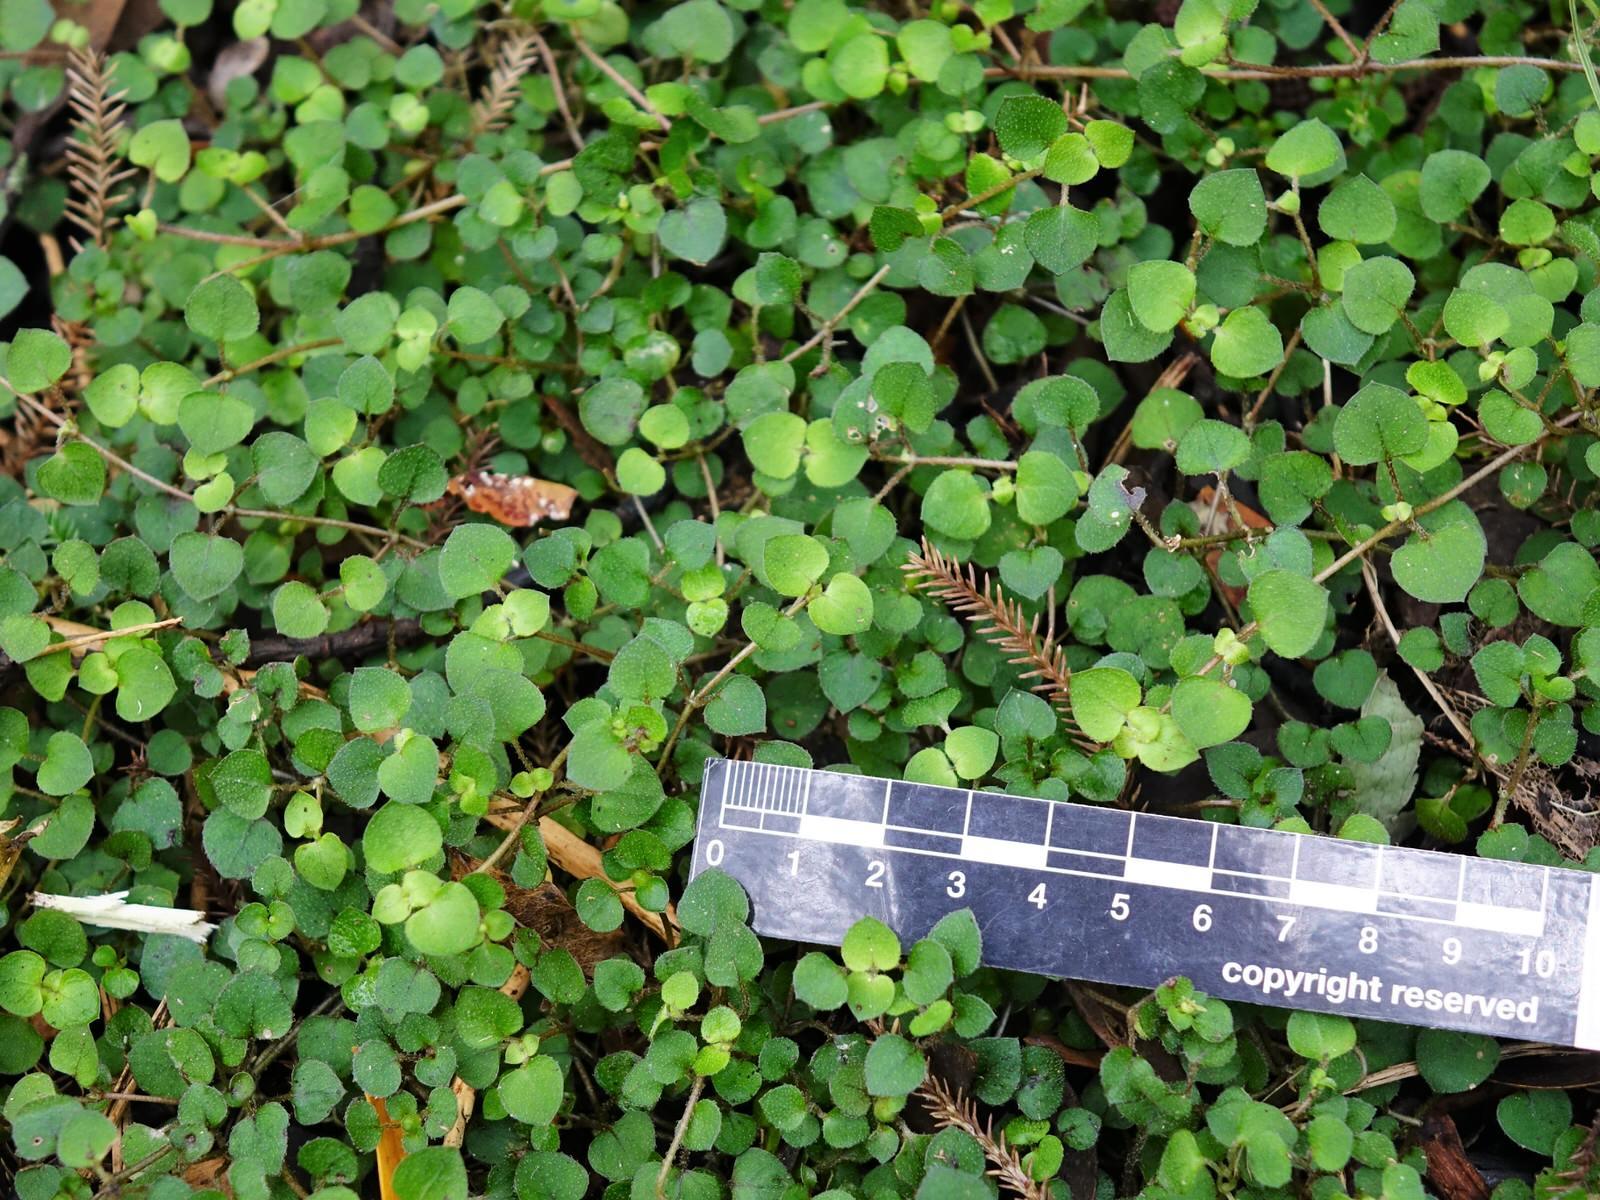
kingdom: Plantae
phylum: Tracheophyta
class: Magnoliopsida
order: Gentianales
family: Rubiaceae
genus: Nertera
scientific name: Nertera dichondrifolia
